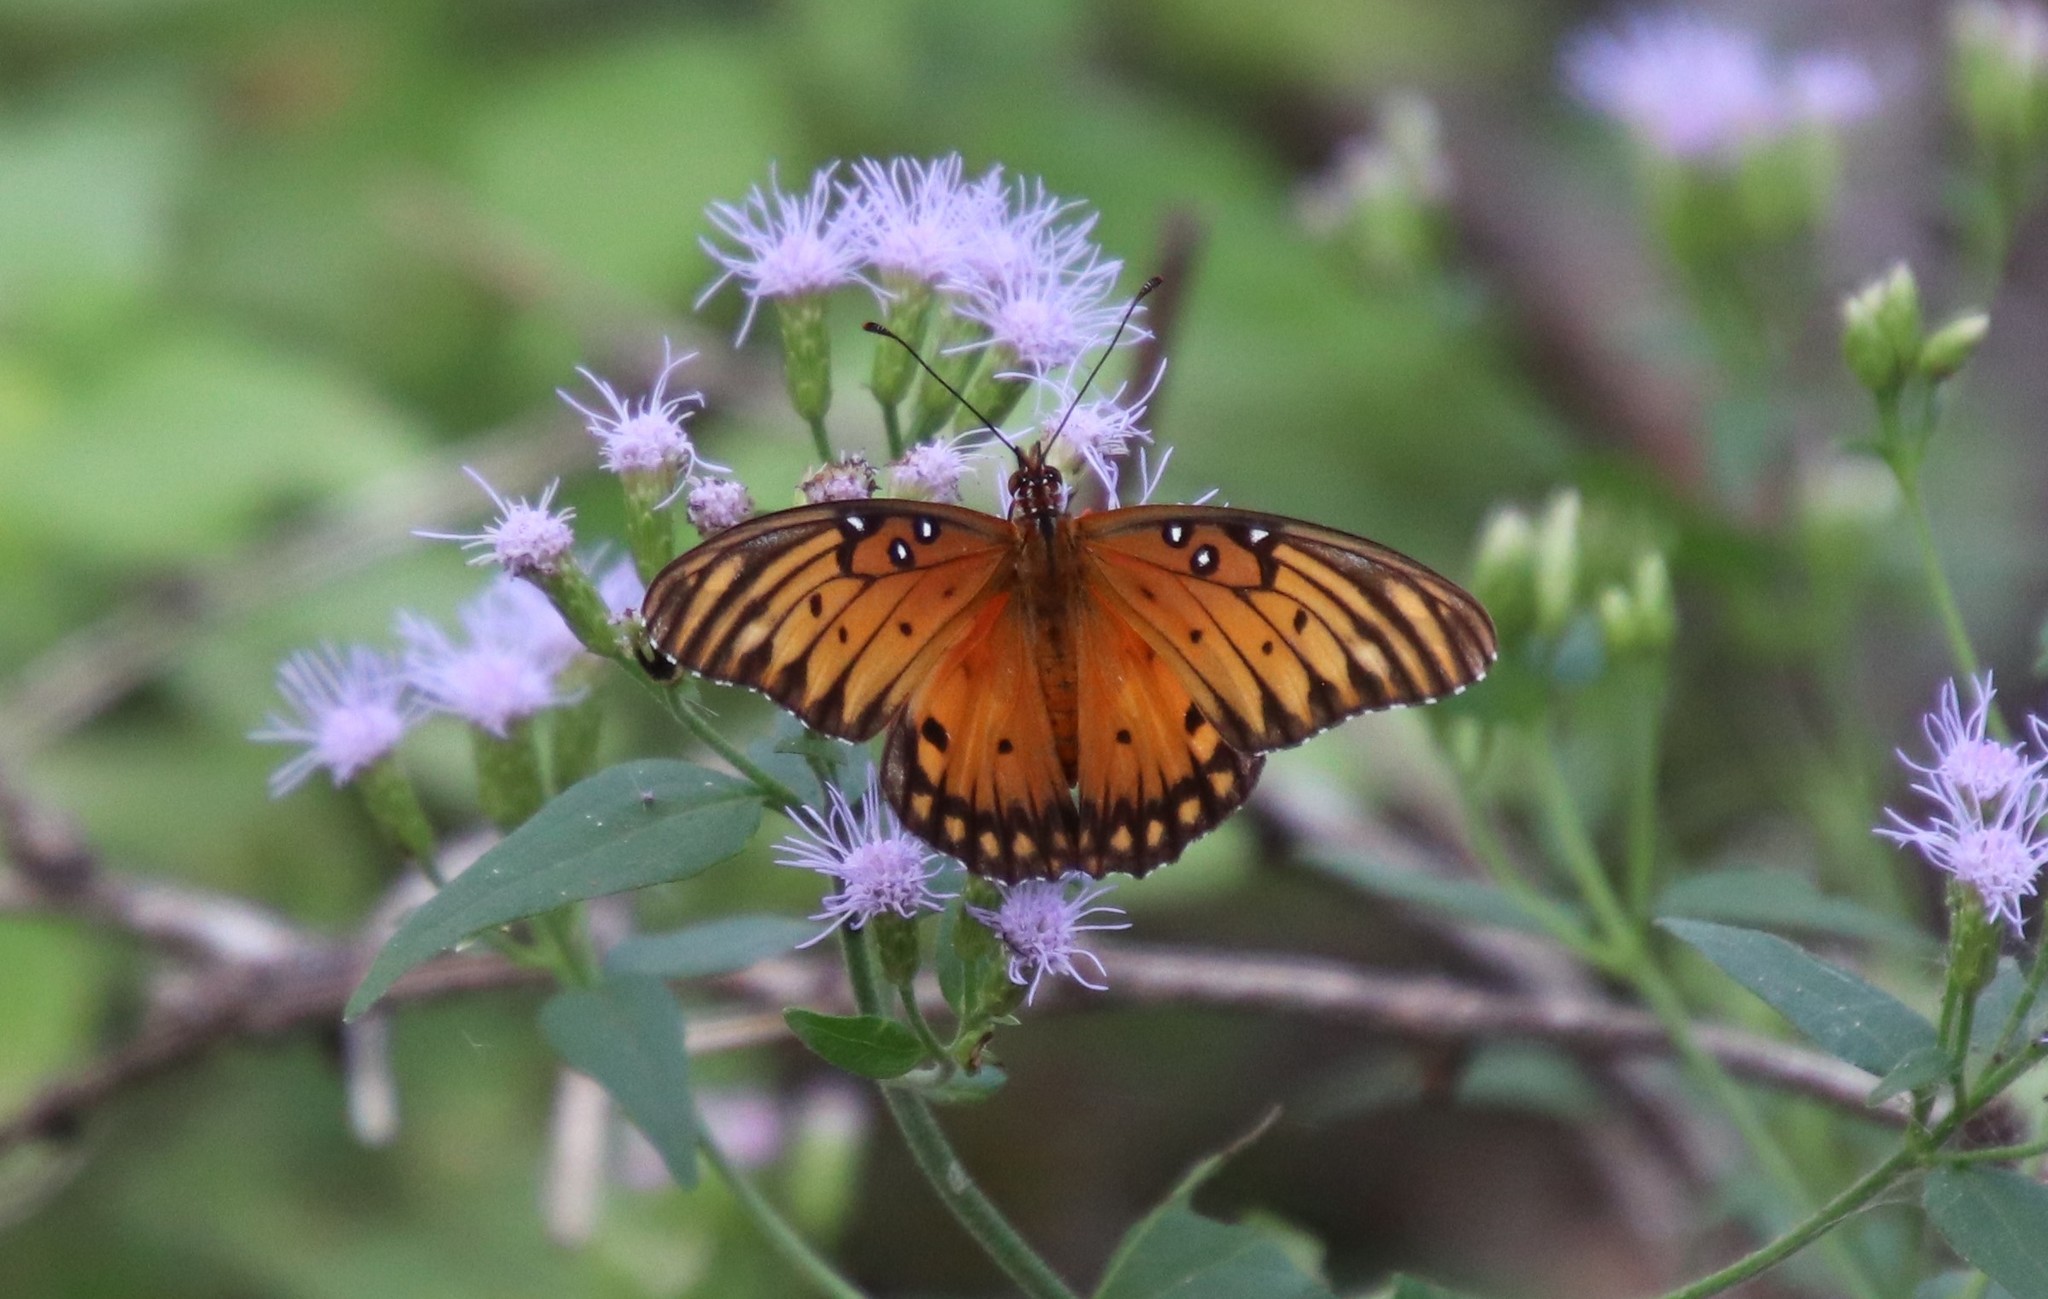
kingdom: Animalia
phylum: Arthropoda
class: Insecta
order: Lepidoptera
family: Nymphalidae
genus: Dione
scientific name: Dione vanillae
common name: Gulf fritillary
